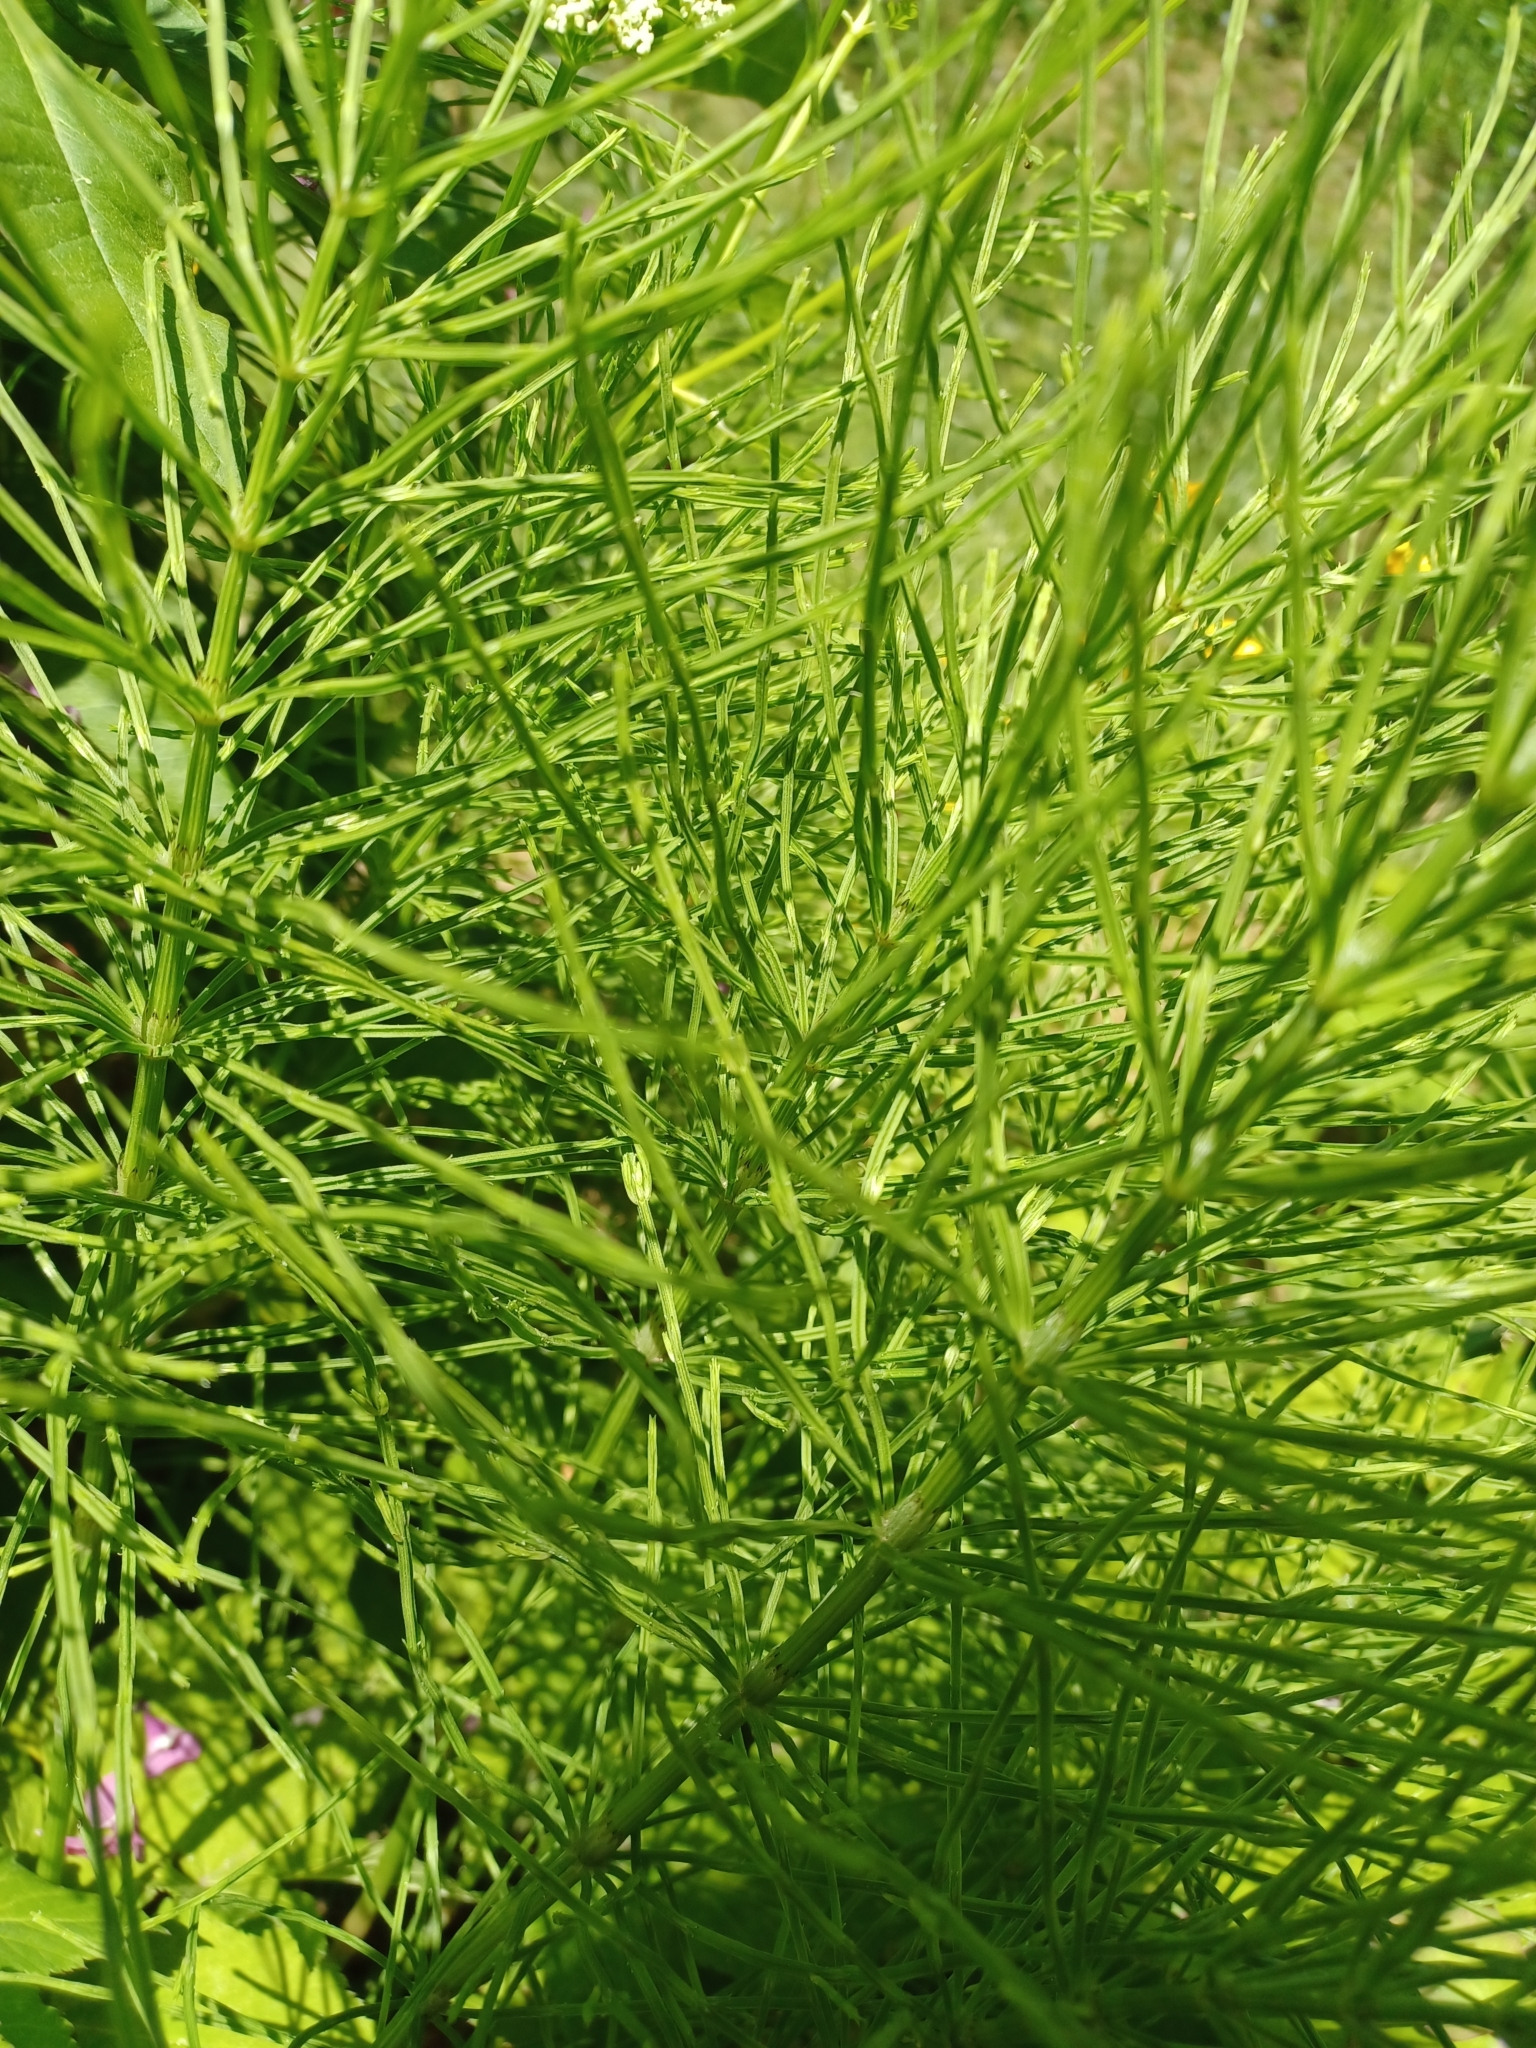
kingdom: Plantae
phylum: Tracheophyta
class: Polypodiopsida
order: Equisetales
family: Equisetaceae
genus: Equisetum
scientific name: Equisetum arvense
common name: Field horsetail
